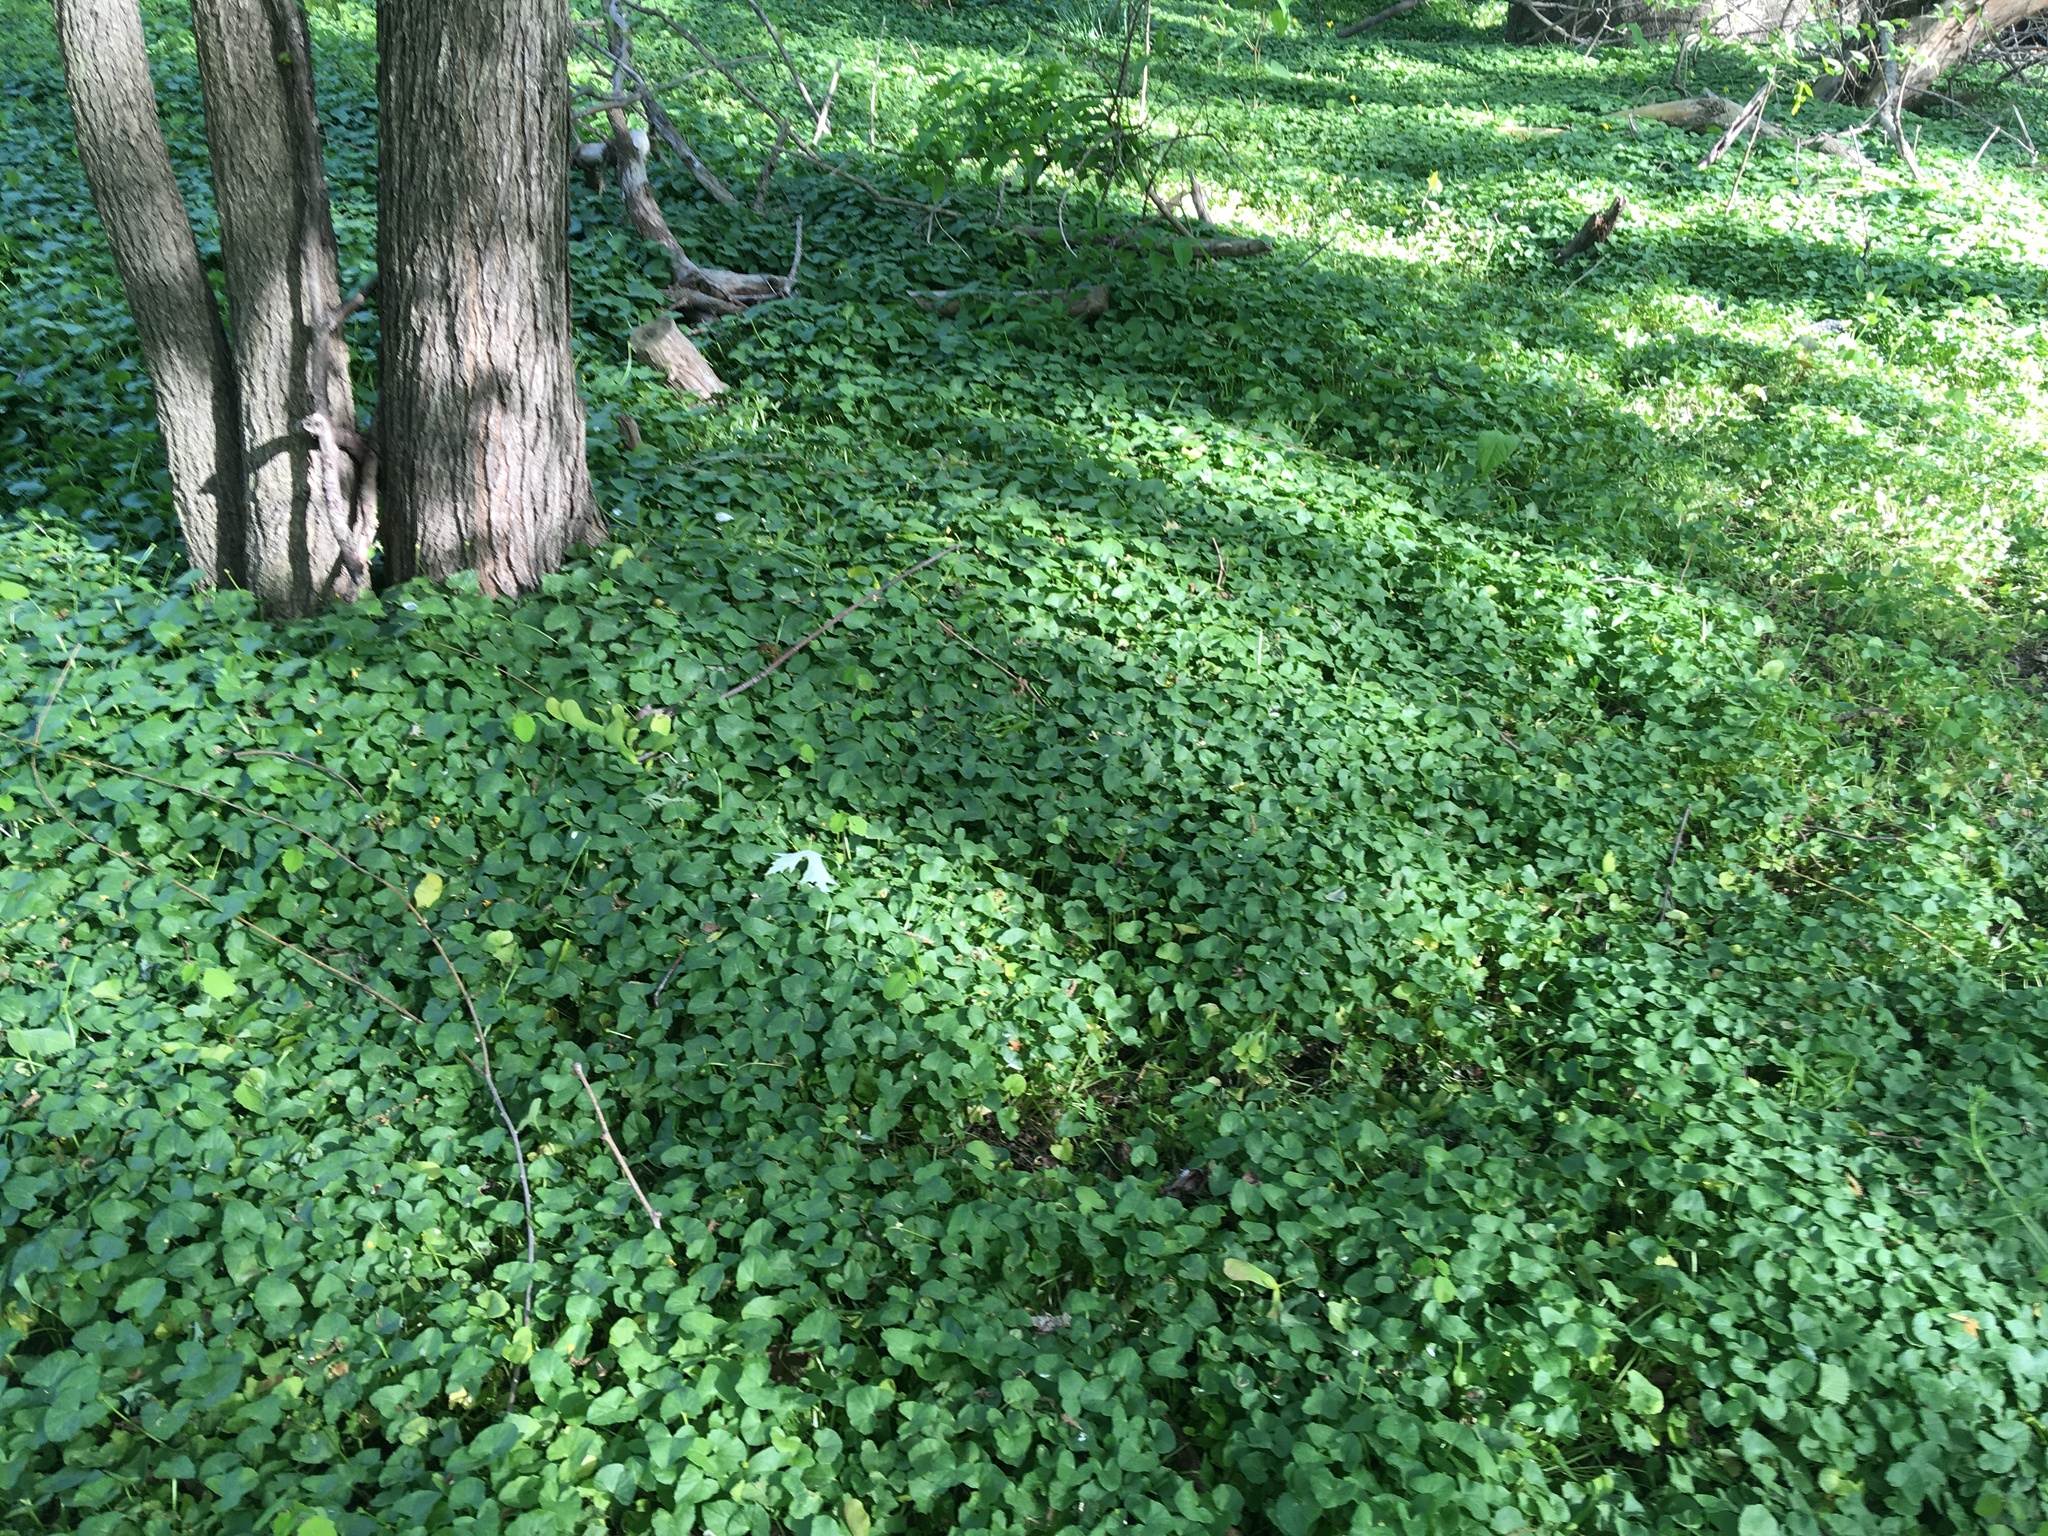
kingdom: Plantae
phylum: Tracheophyta
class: Magnoliopsida
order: Ranunculales
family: Ranunculaceae
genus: Ficaria
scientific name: Ficaria verna
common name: Lesser celandine
